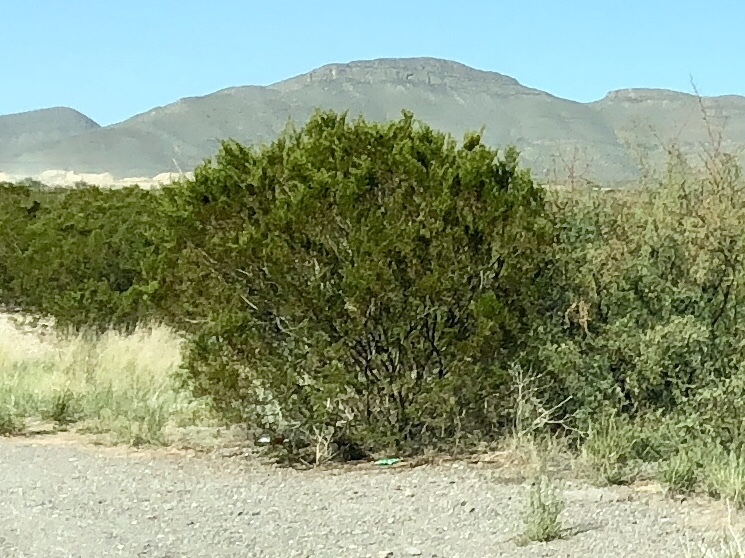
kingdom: Plantae
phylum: Tracheophyta
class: Magnoliopsida
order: Zygophyllales
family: Zygophyllaceae
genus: Larrea
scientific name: Larrea tridentata
